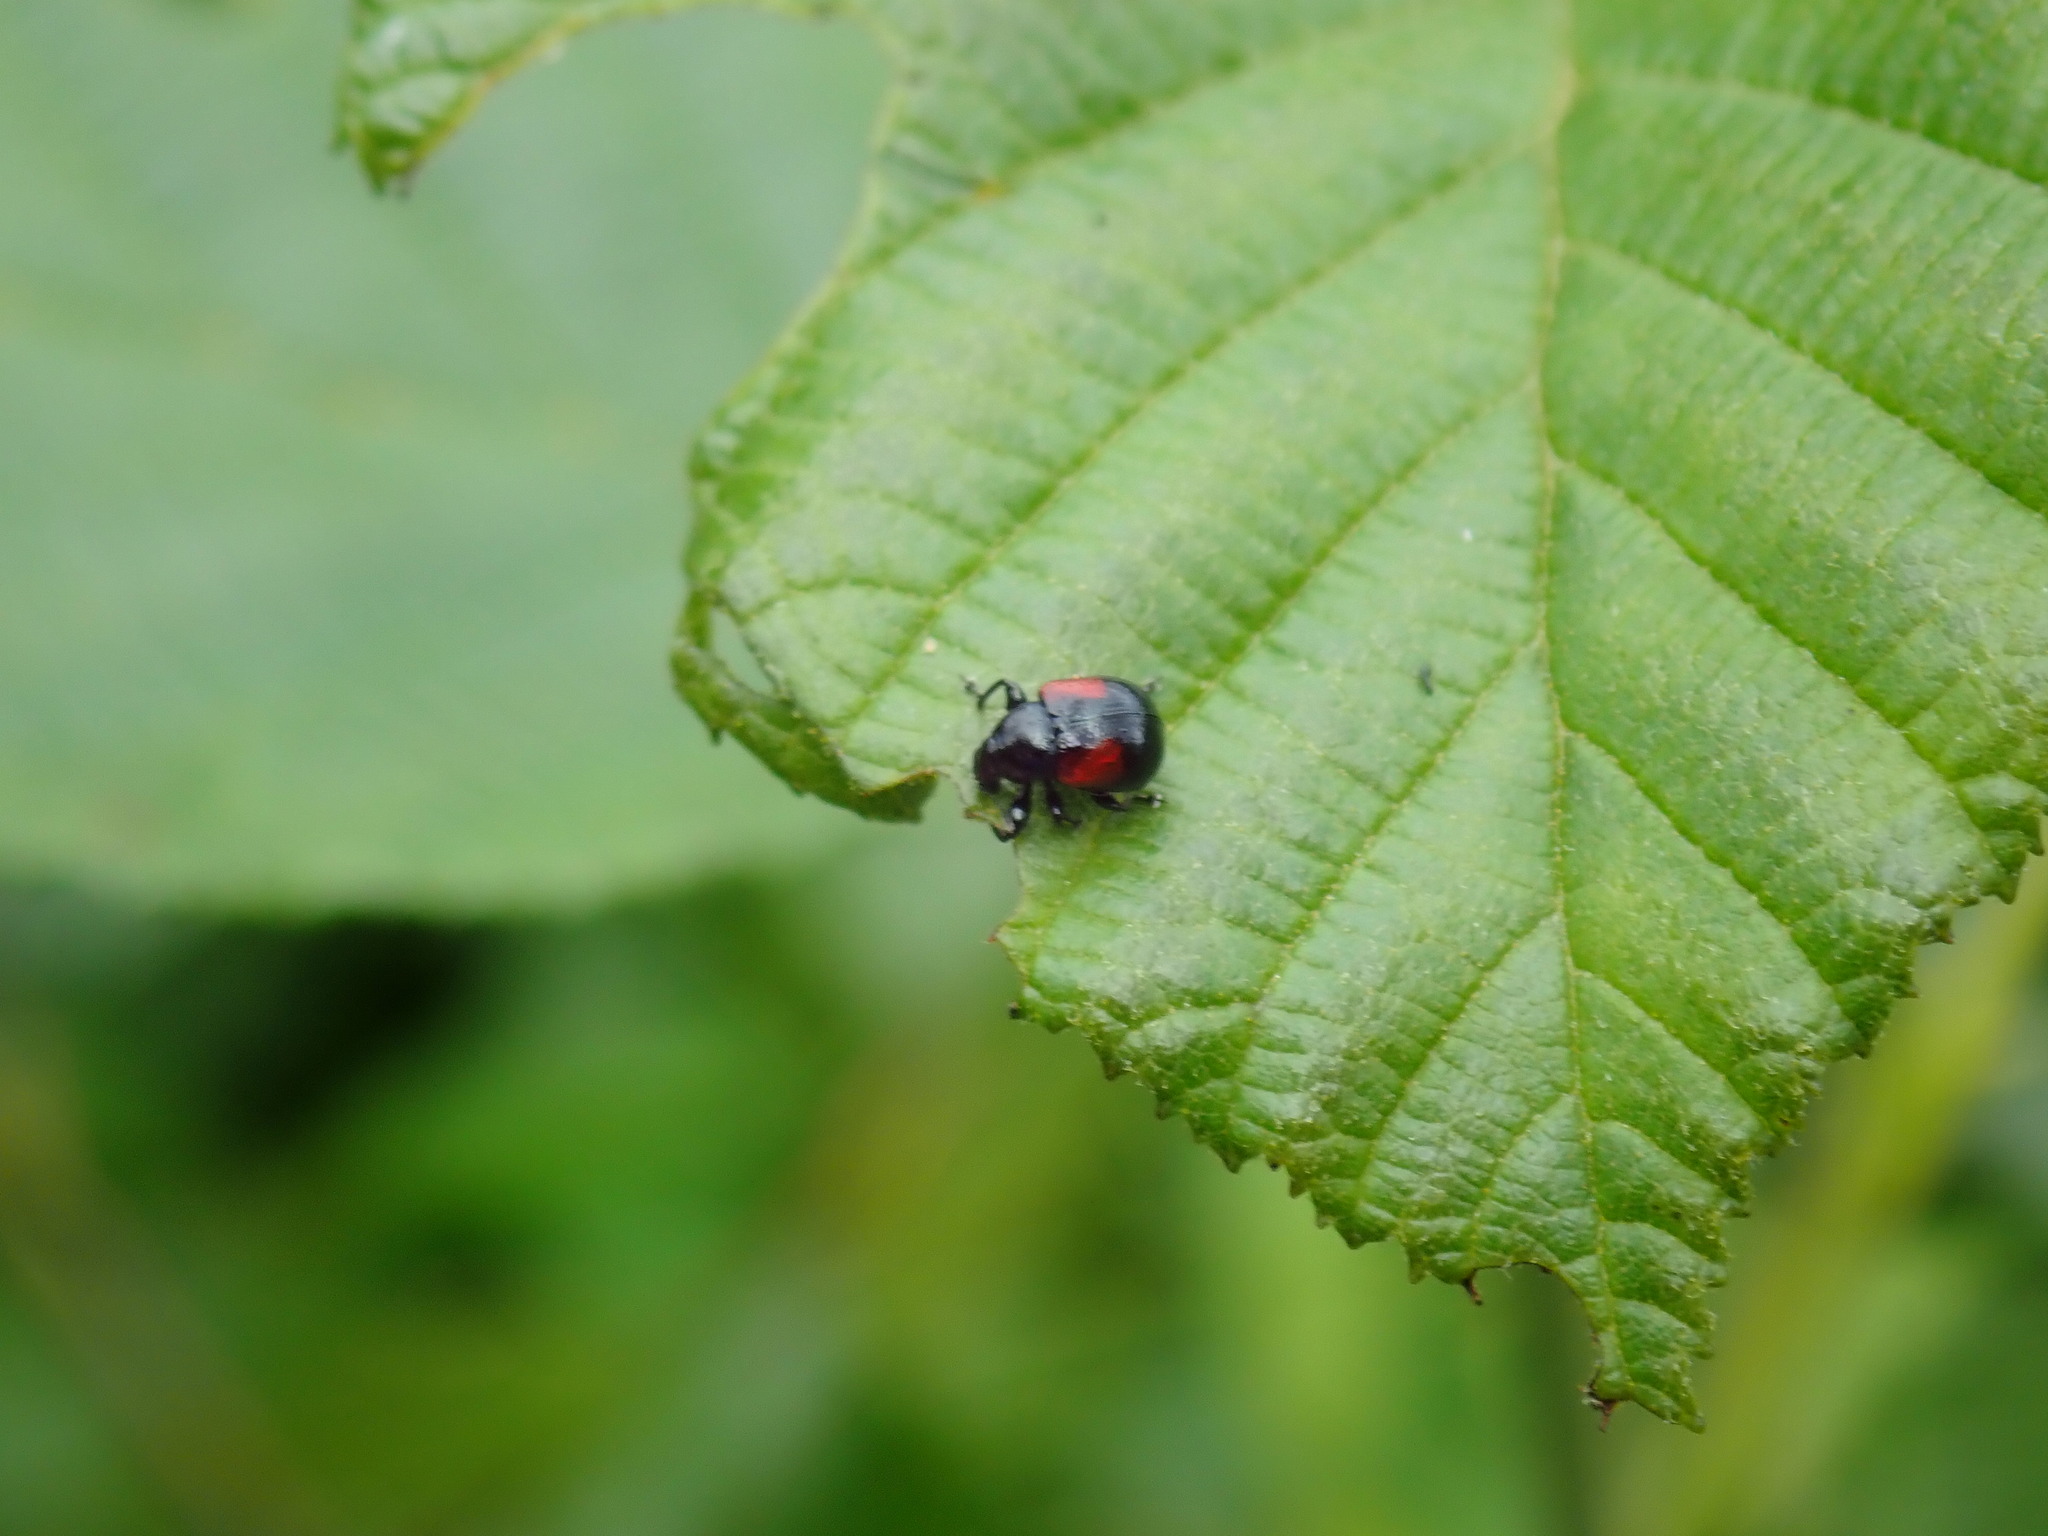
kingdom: Animalia
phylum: Arthropoda
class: Insecta
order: Coleoptera
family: Attelabidae
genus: Attelabus
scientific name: Attelabus bipustulatus
